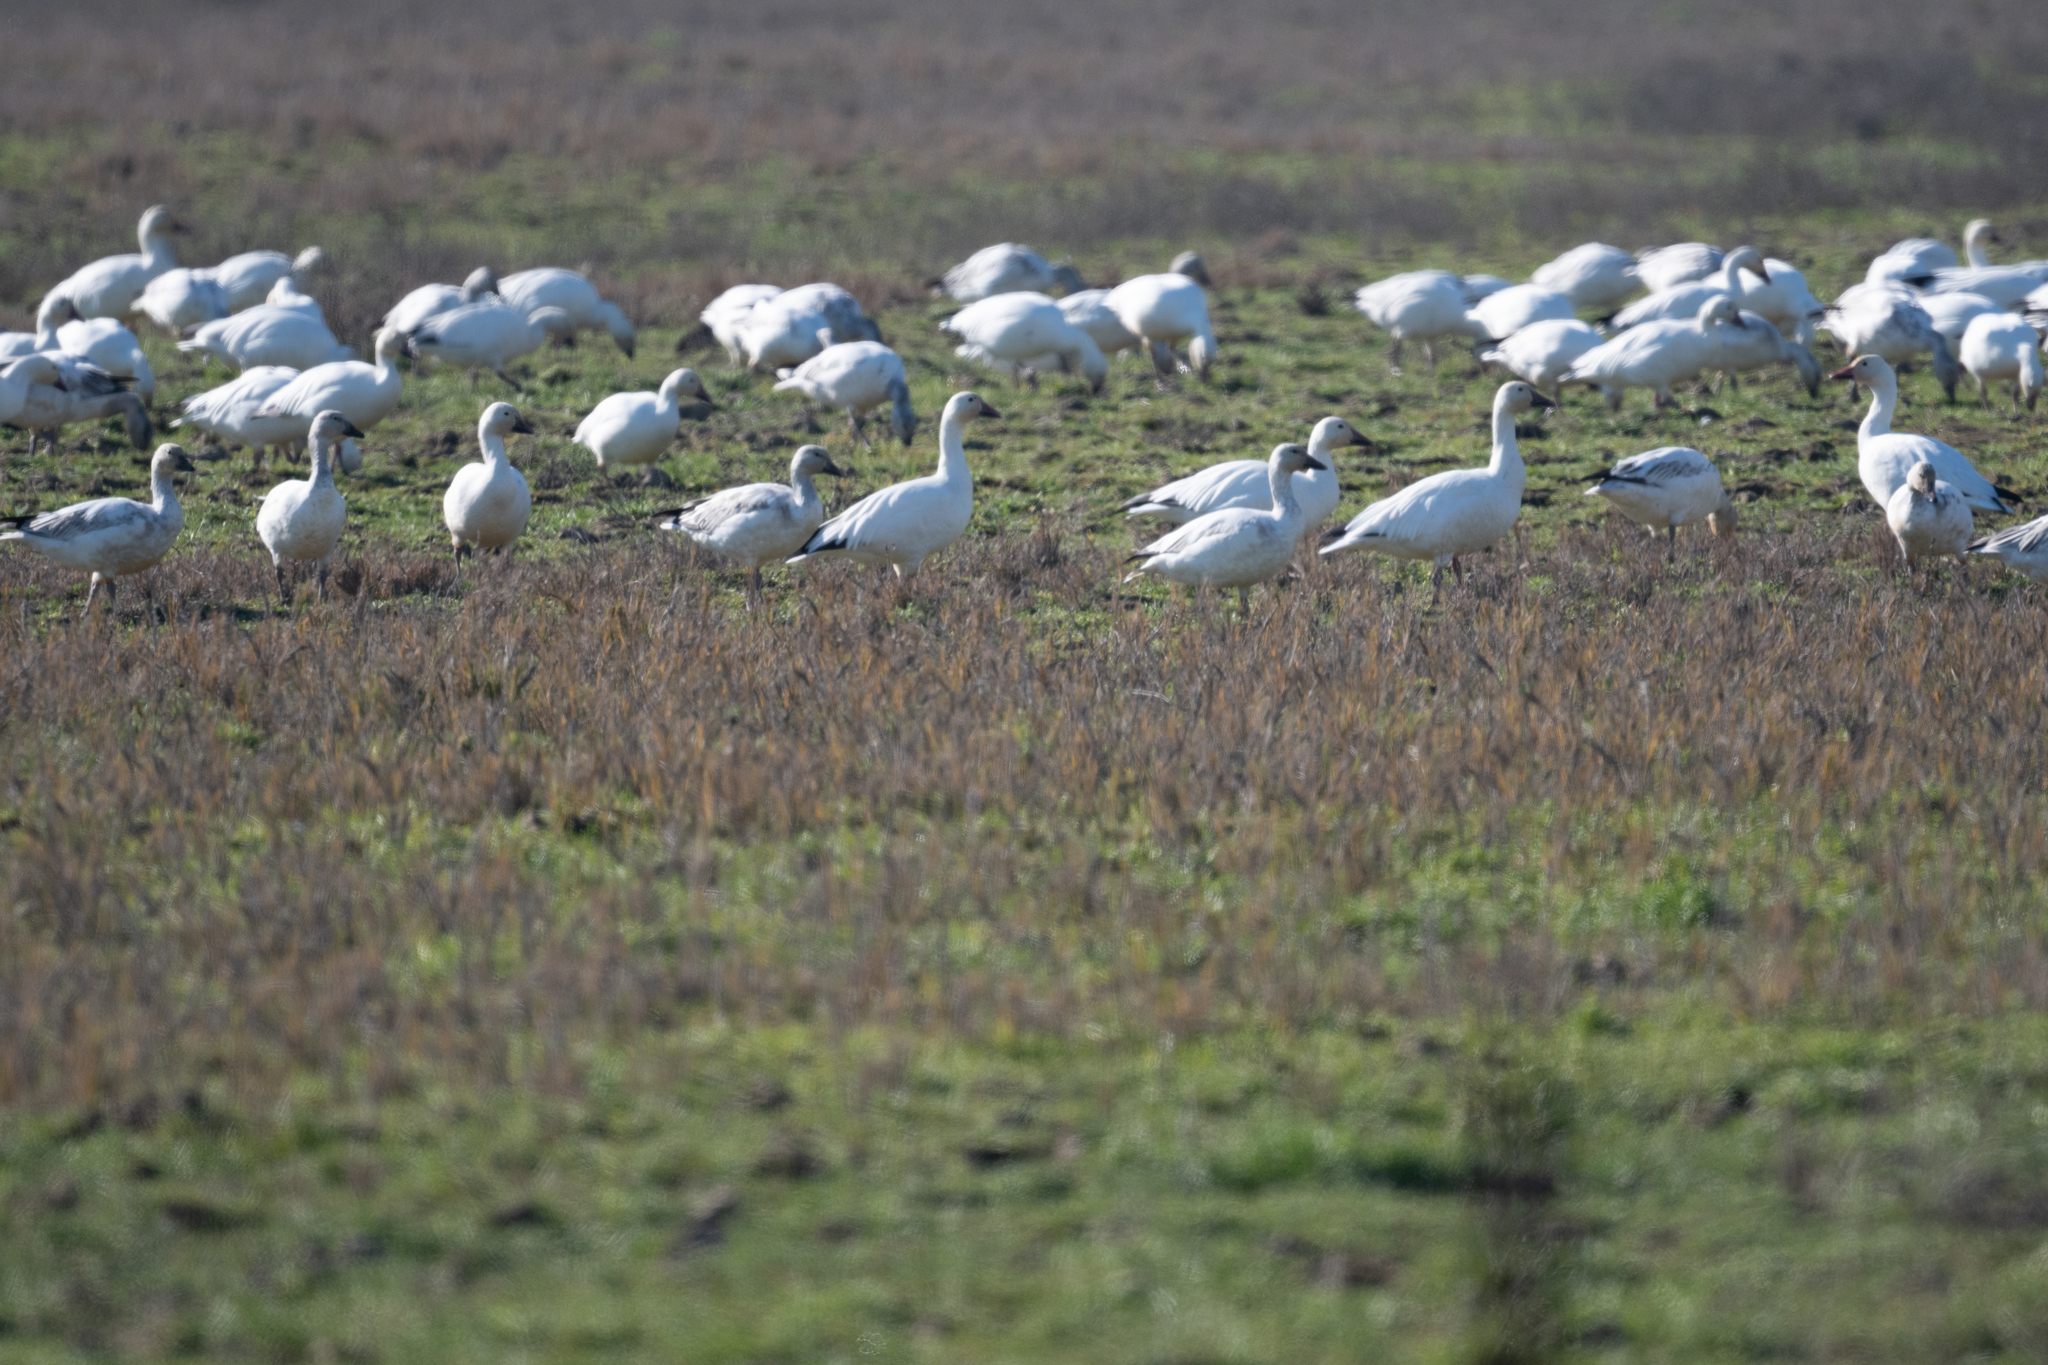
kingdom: Animalia
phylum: Chordata
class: Aves
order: Anseriformes
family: Anatidae
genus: Anser
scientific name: Anser caerulescens
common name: Snow goose
